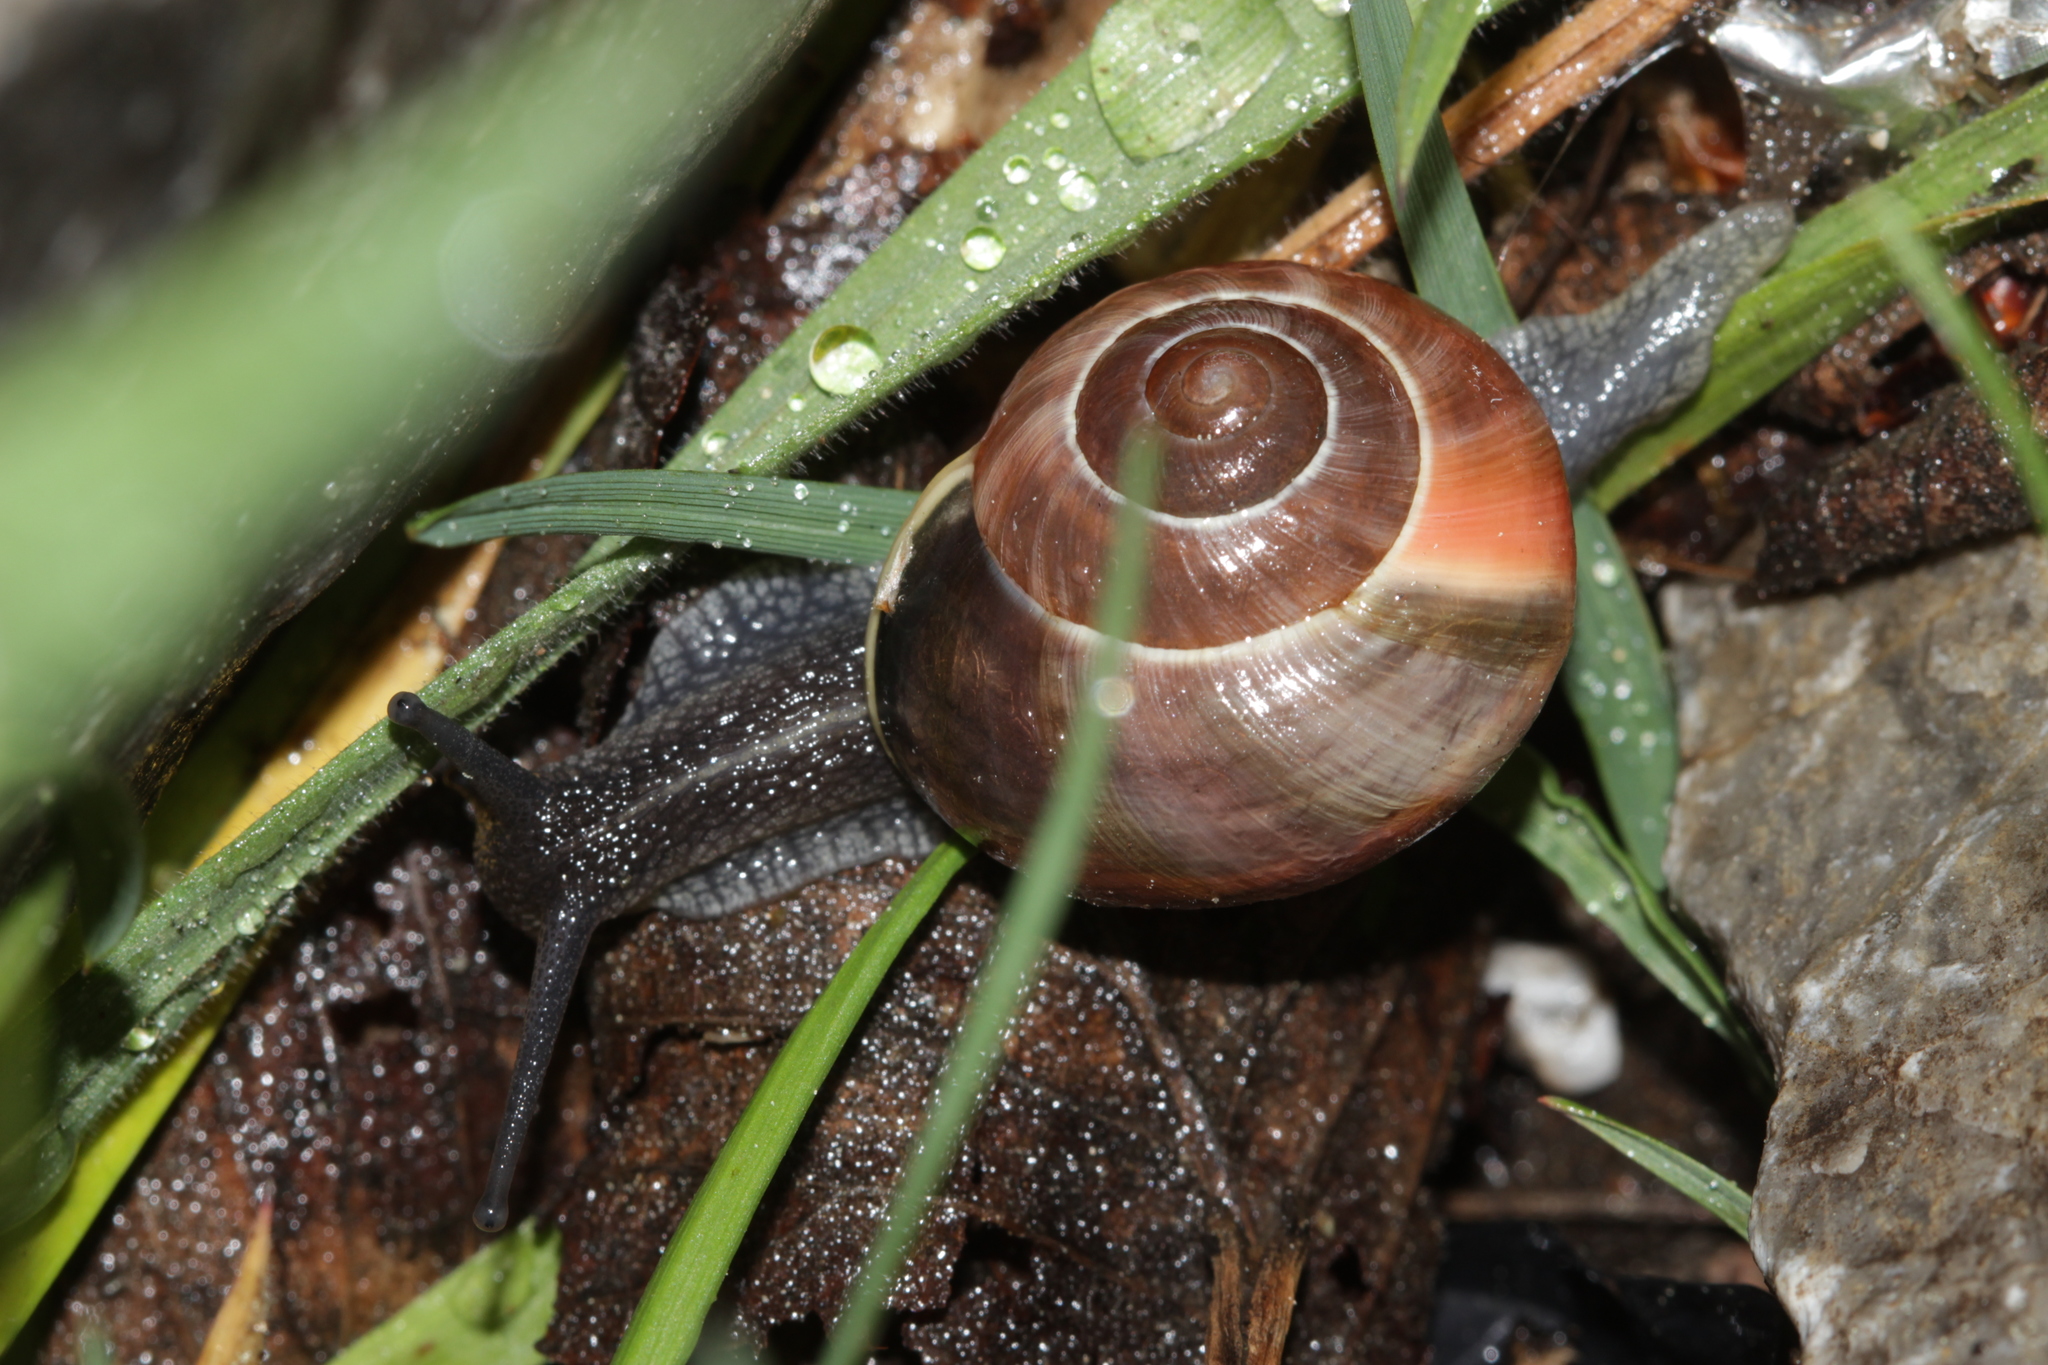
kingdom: Animalia
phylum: Mollusca
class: Gastropoda
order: Stylommatophora
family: Helicidae
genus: Cepaea
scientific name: Cepaea
